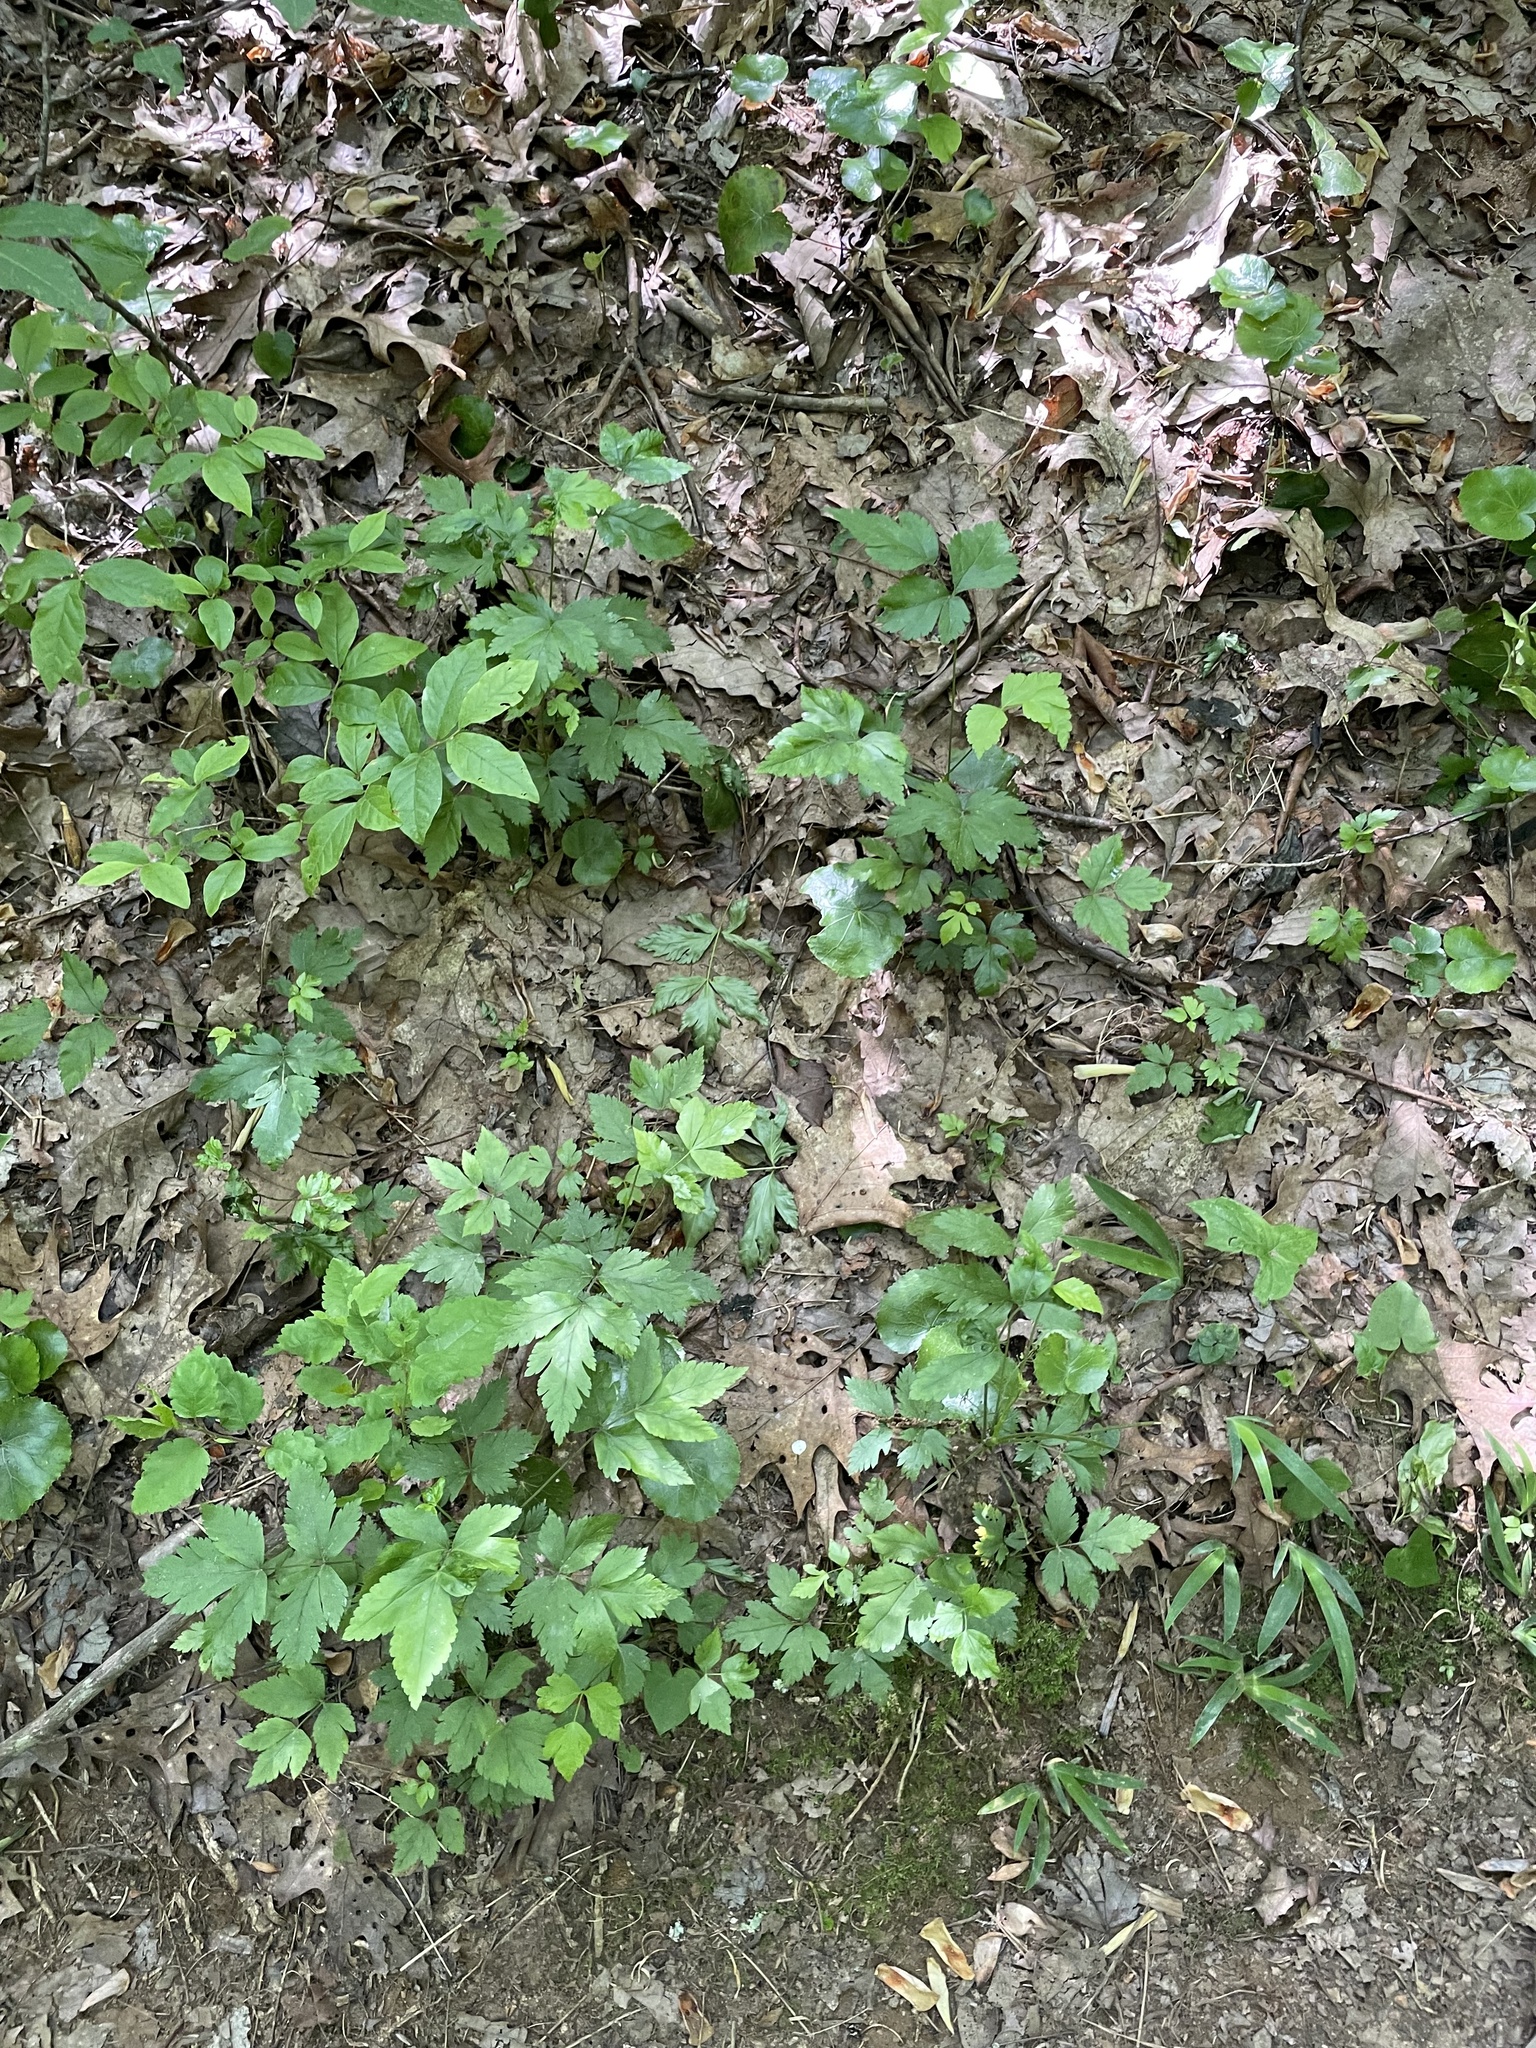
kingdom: Plantae
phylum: Tracheophyta
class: Magnoliopsida
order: Ranunculales
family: Ranunculaceae
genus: Xanthorhiza
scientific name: Xanthorhiza simplicissima
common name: Yellowroot
